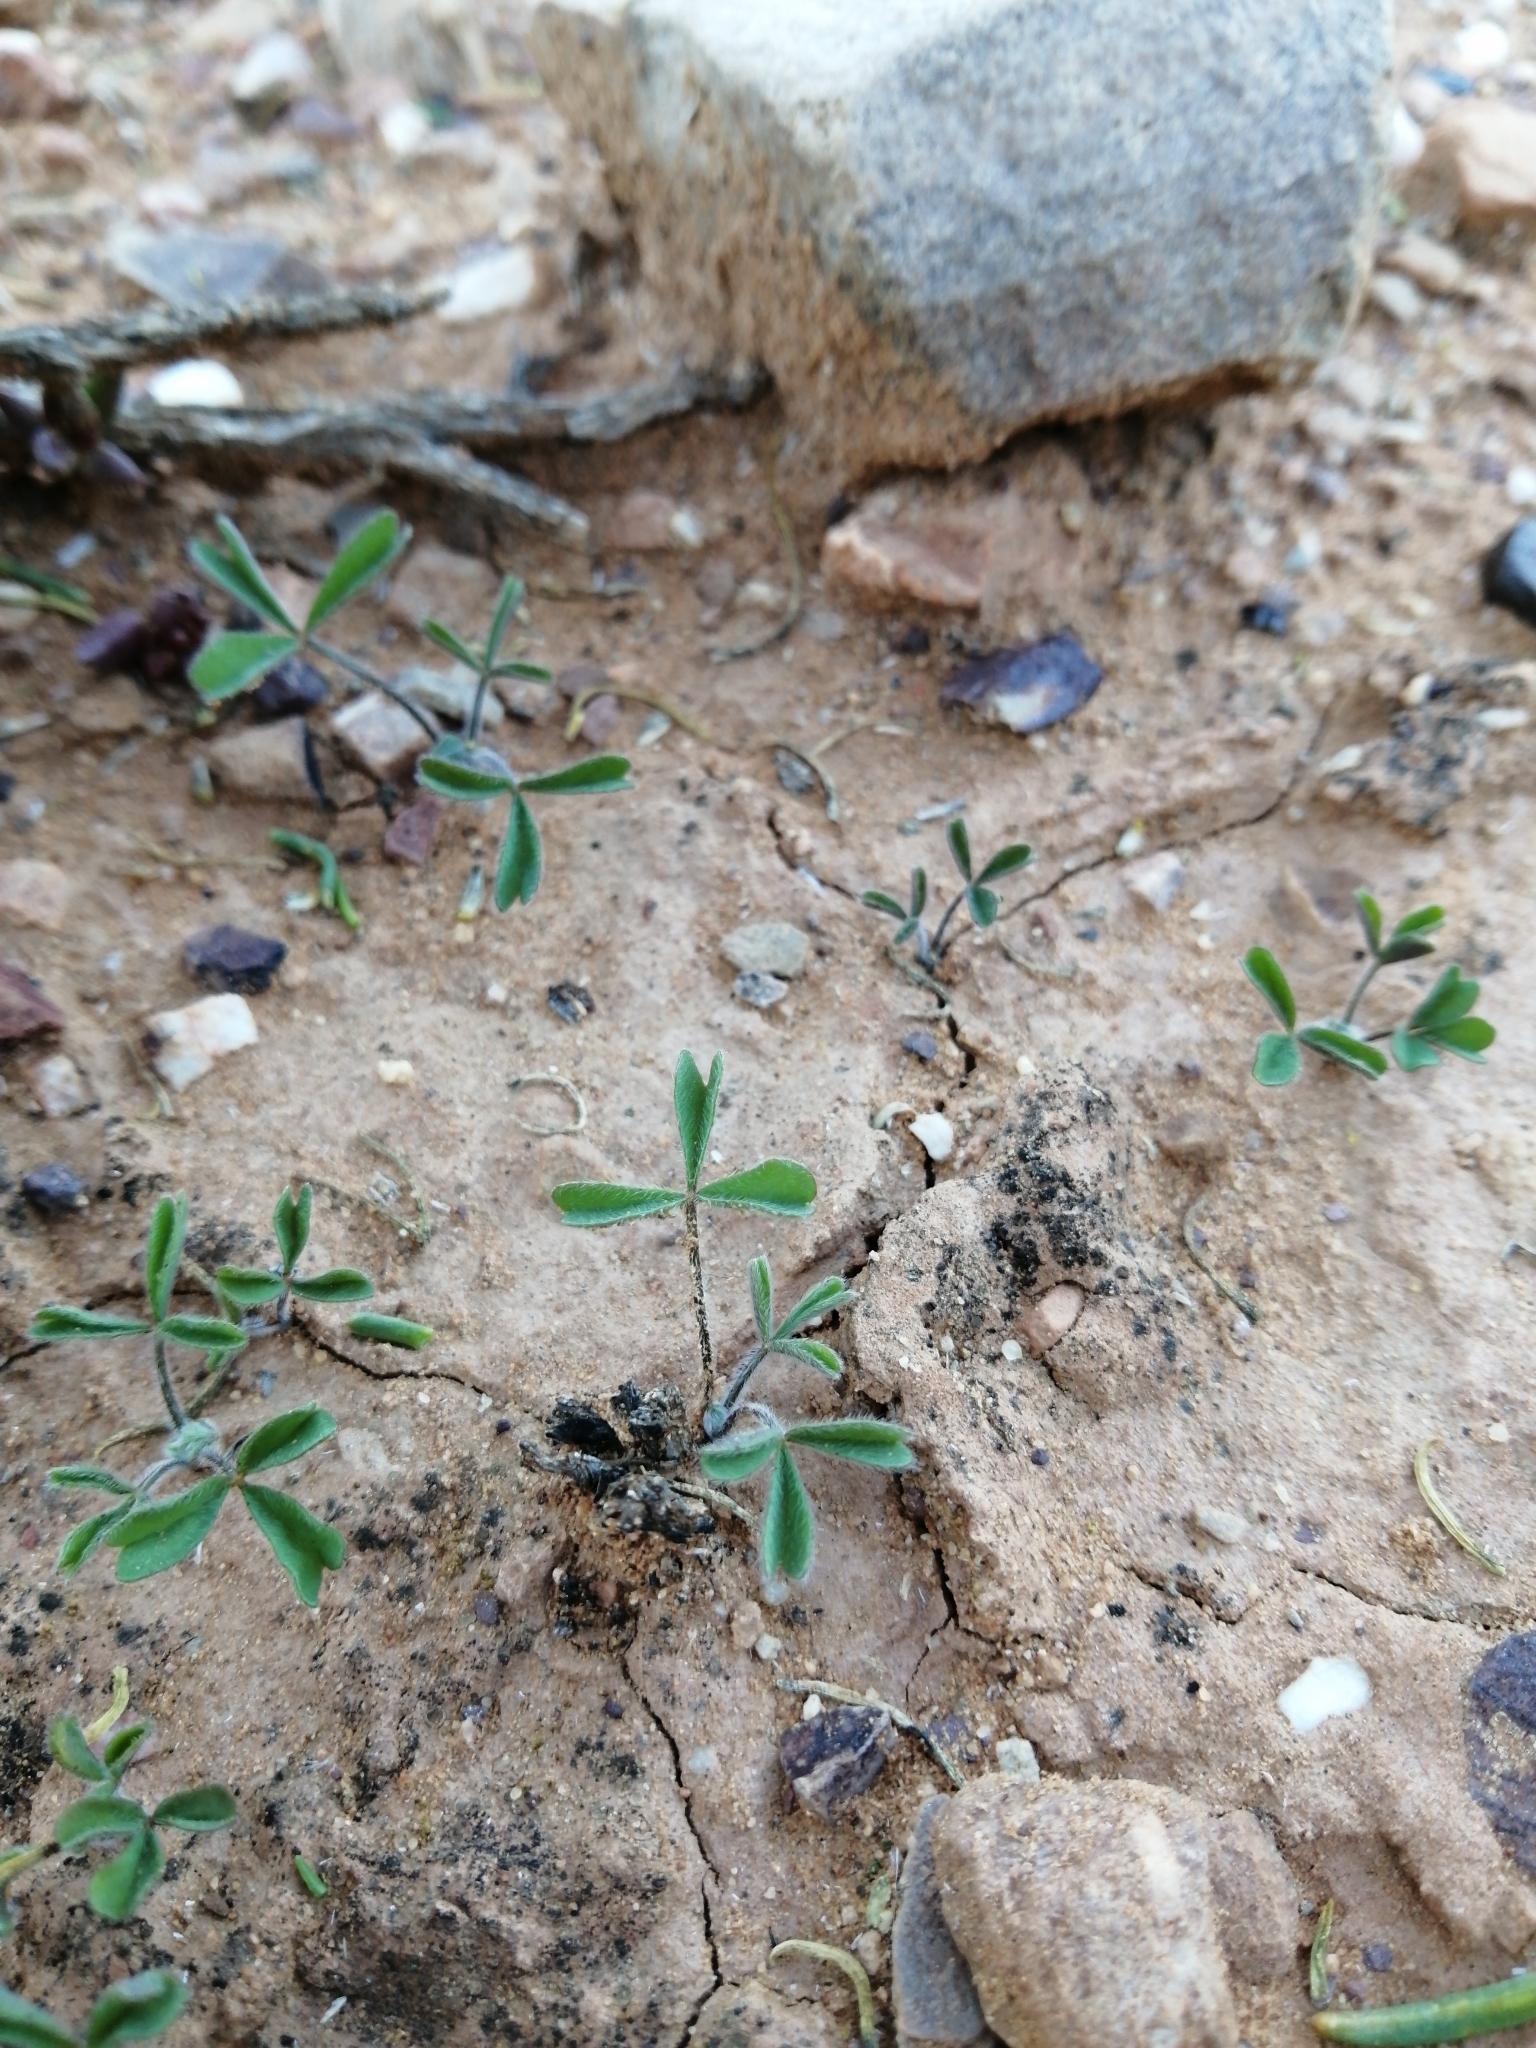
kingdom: Plantae
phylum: Tracheophyta
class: Magnoliopsida
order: Oxalidales
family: Oxalidaceae
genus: Oxalis
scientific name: Oxalis obtusa
